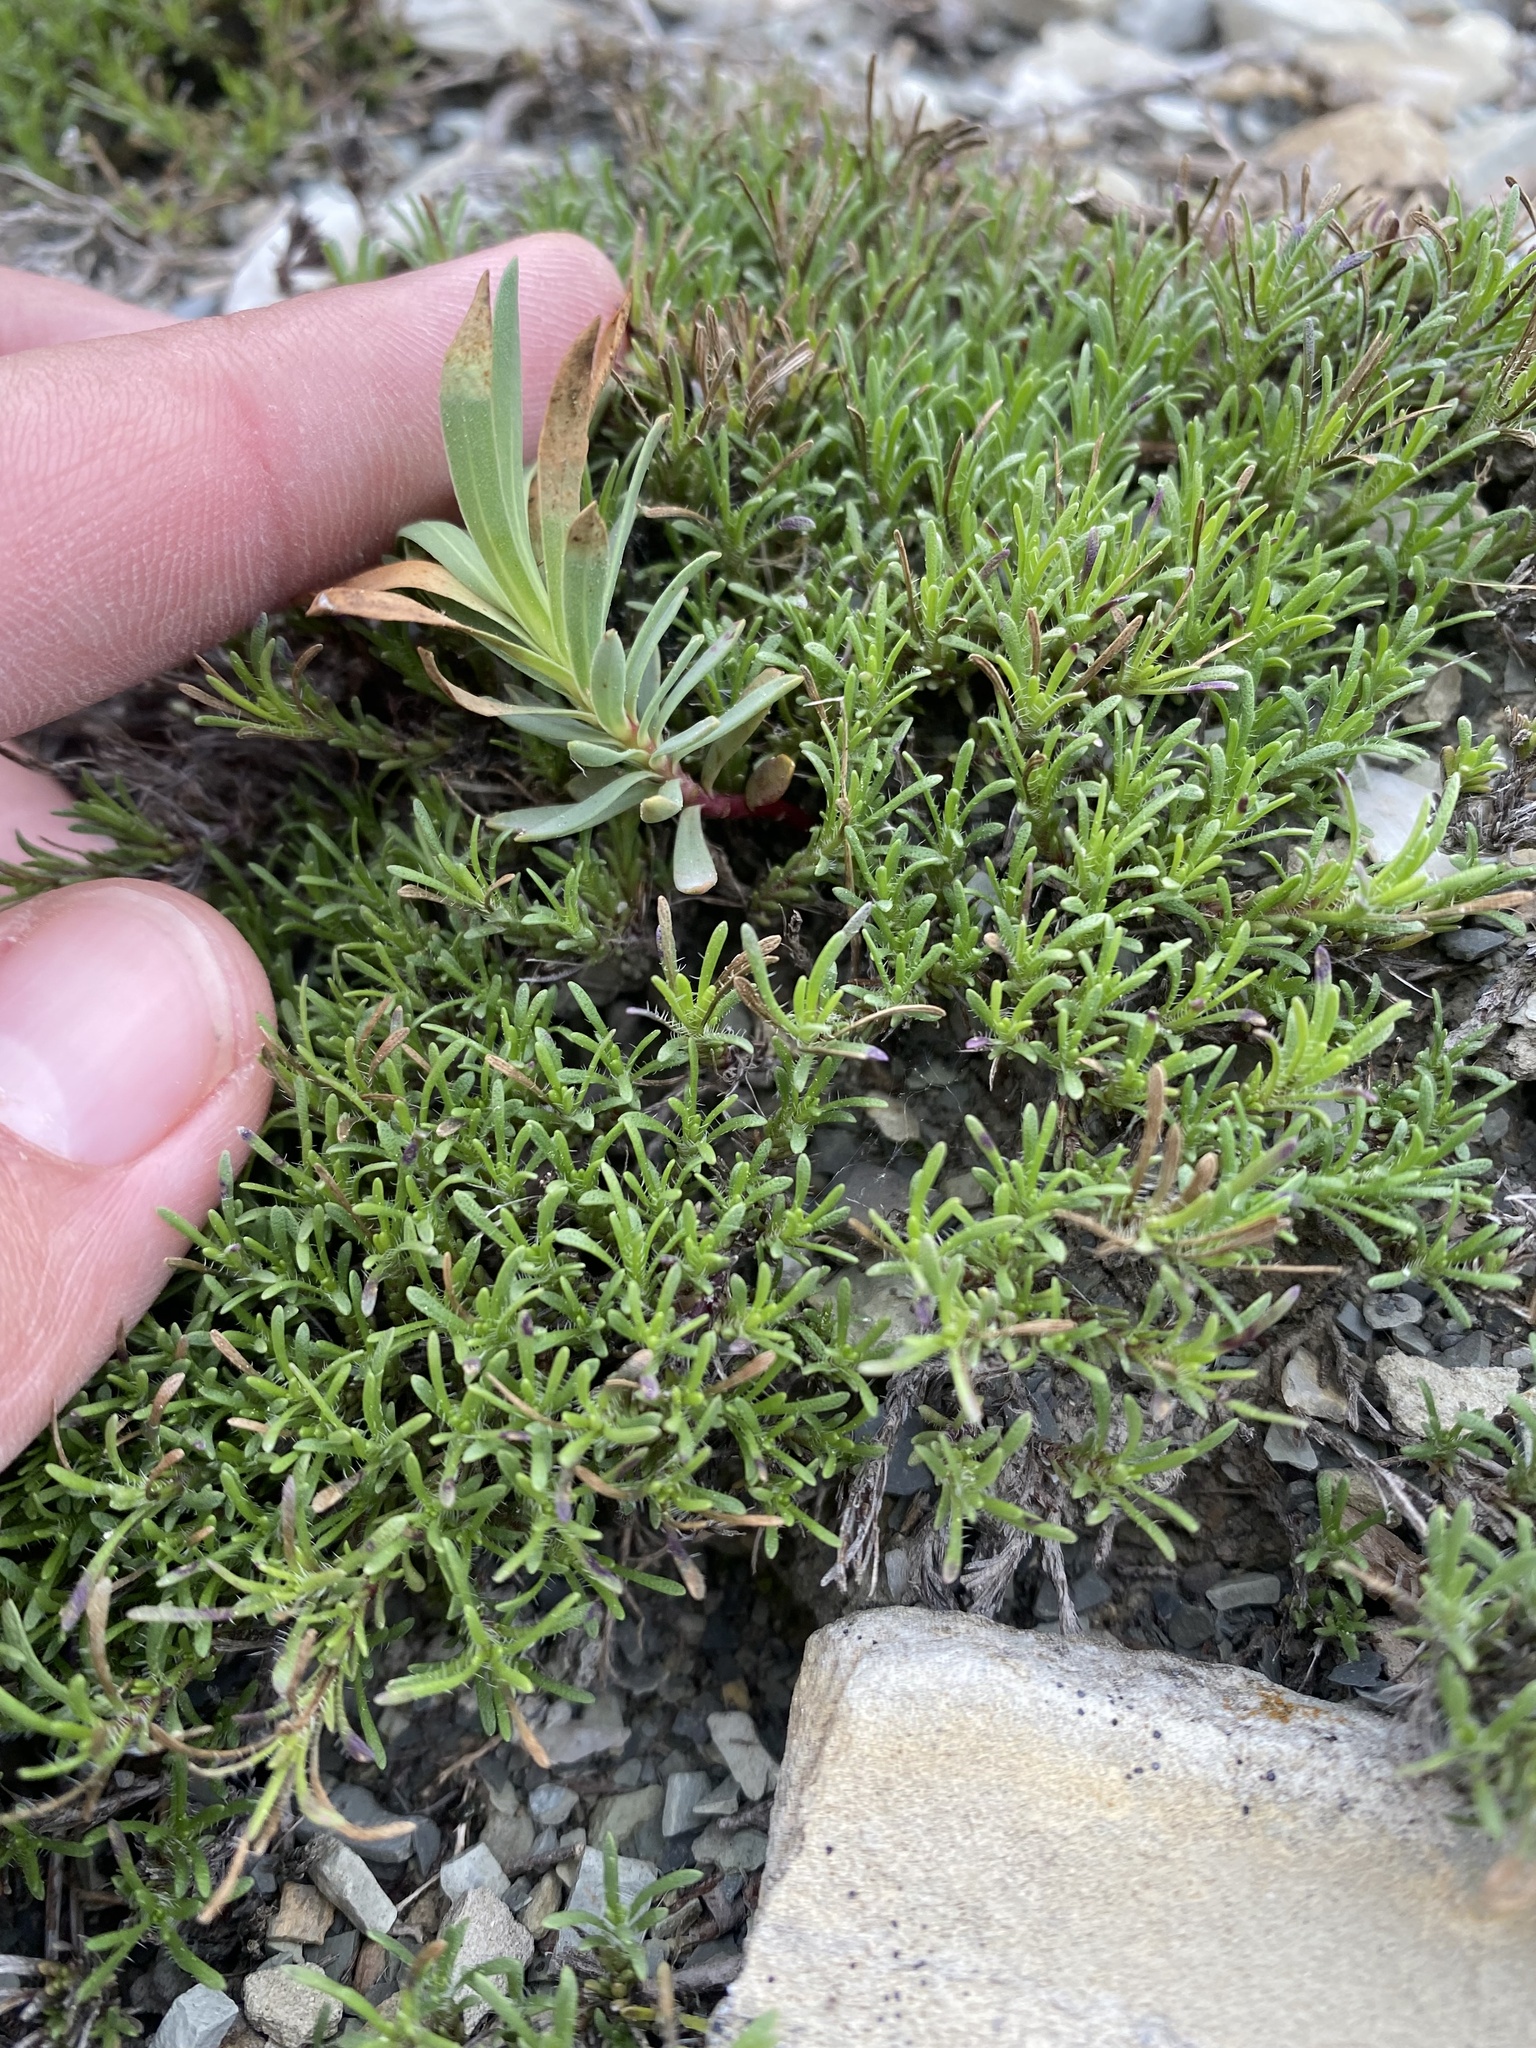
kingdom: Plantae
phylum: Tracheophyta
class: Magnoliopsida
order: Malpighiales
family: Euphorbiaceae
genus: Euphorbia
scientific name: Euphorbia petrophila
